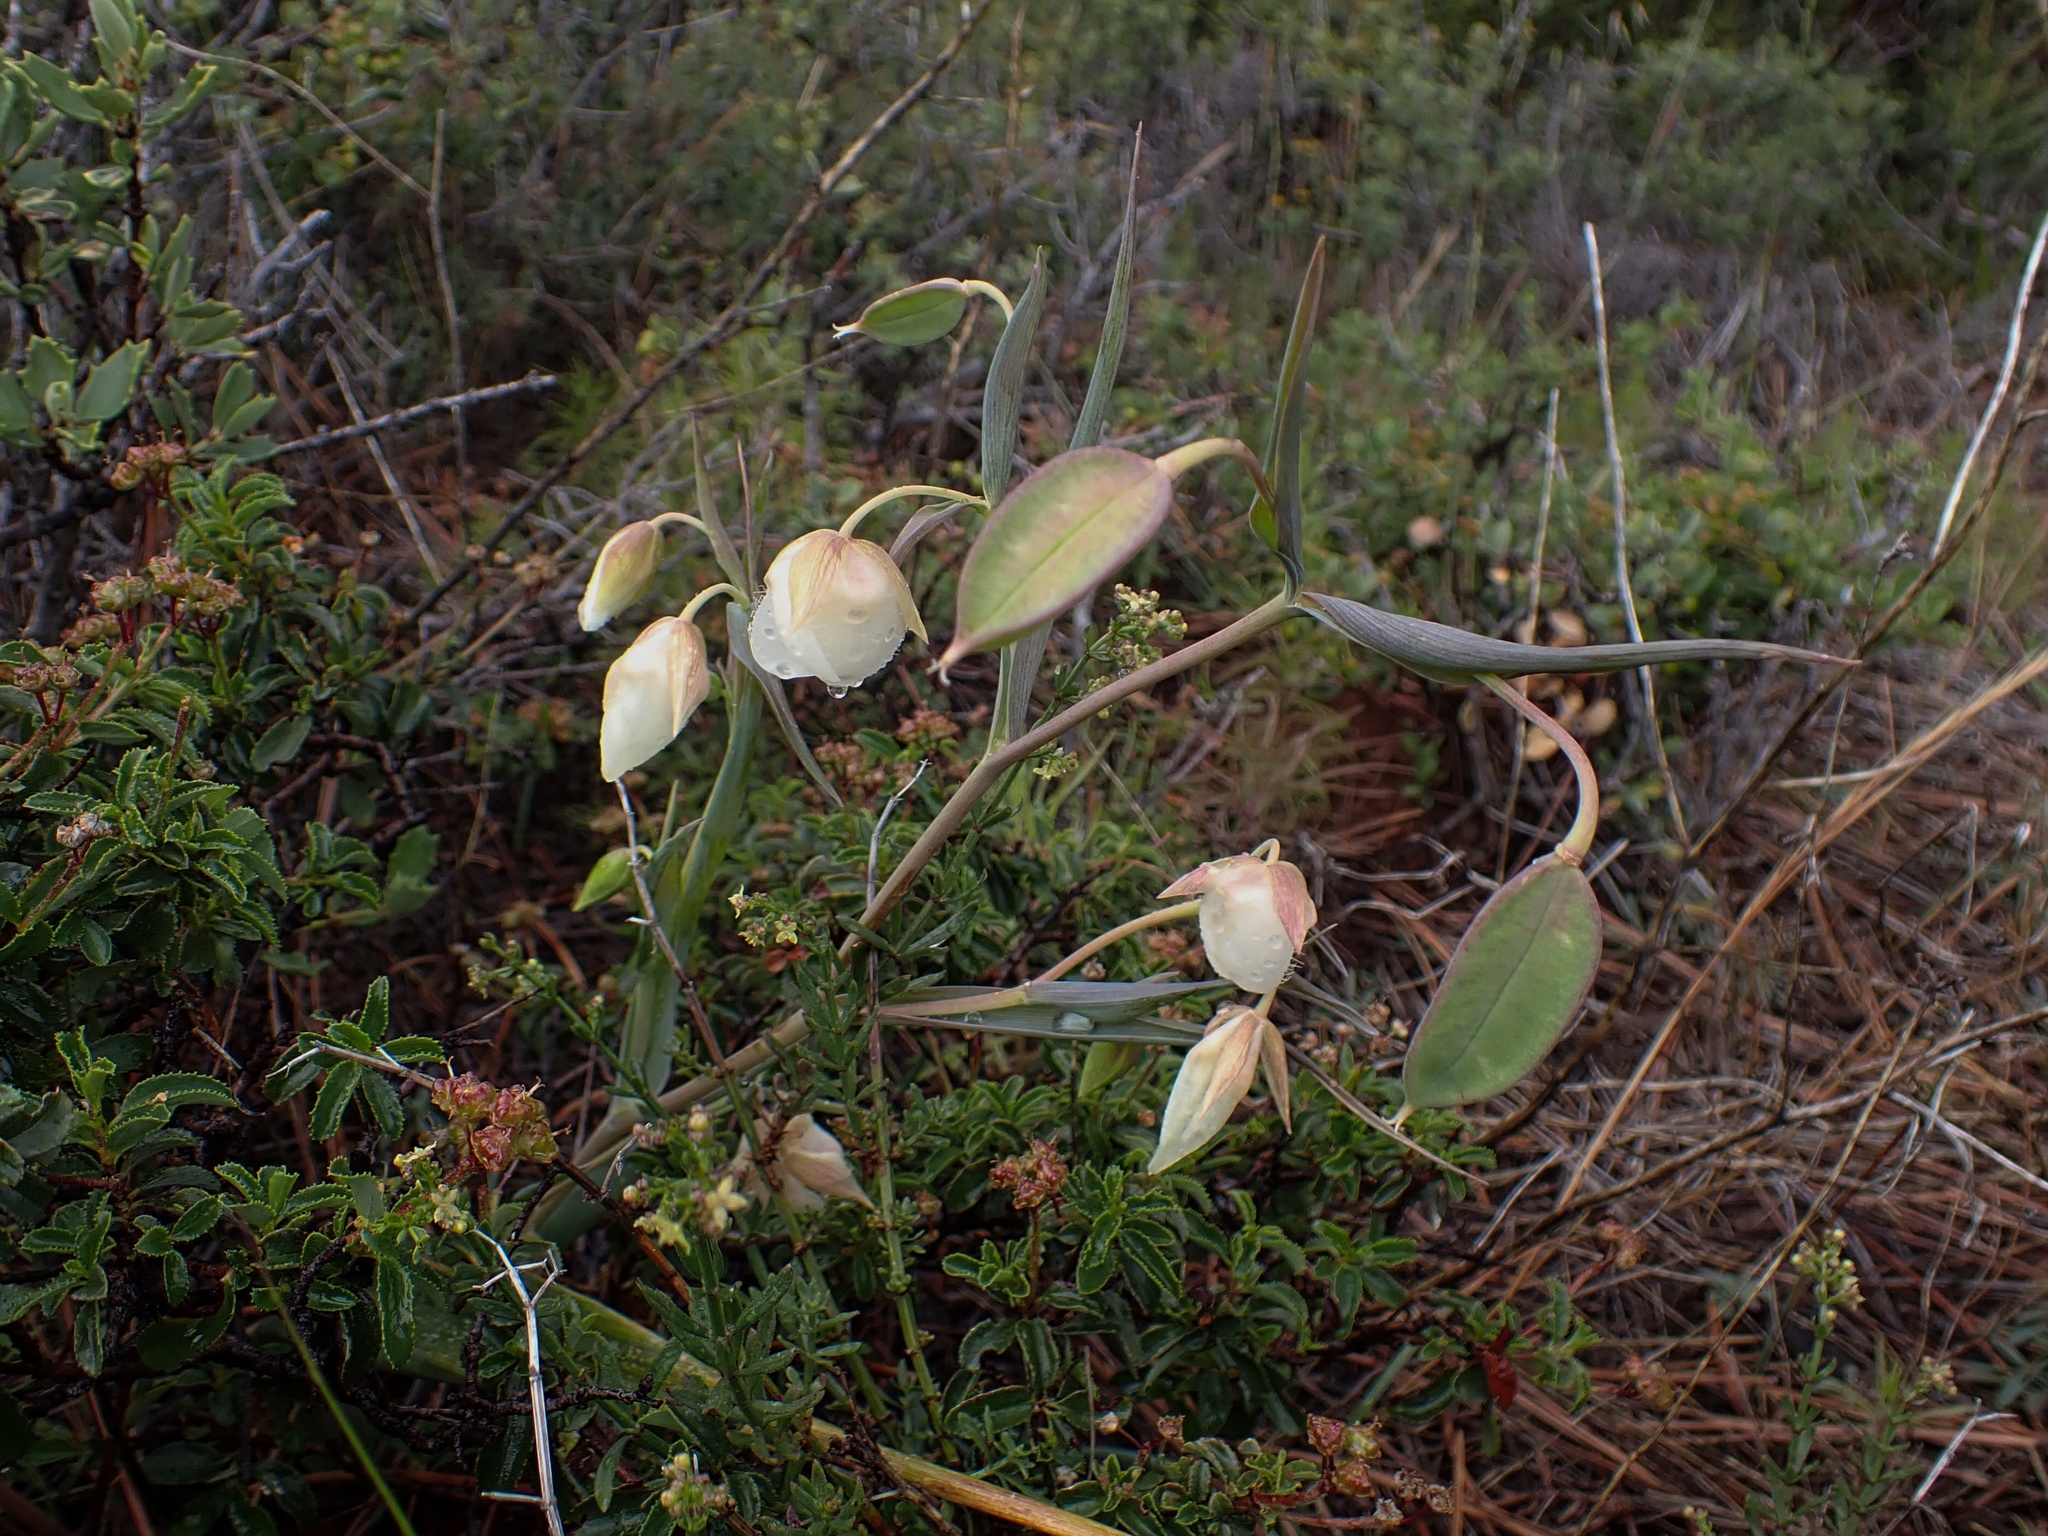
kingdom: Plantae
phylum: Tracheophyta
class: Liliopsida
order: Liliales
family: Liliaceae
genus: Calochortus
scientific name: Calochortus albus
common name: Fairy-lantern
